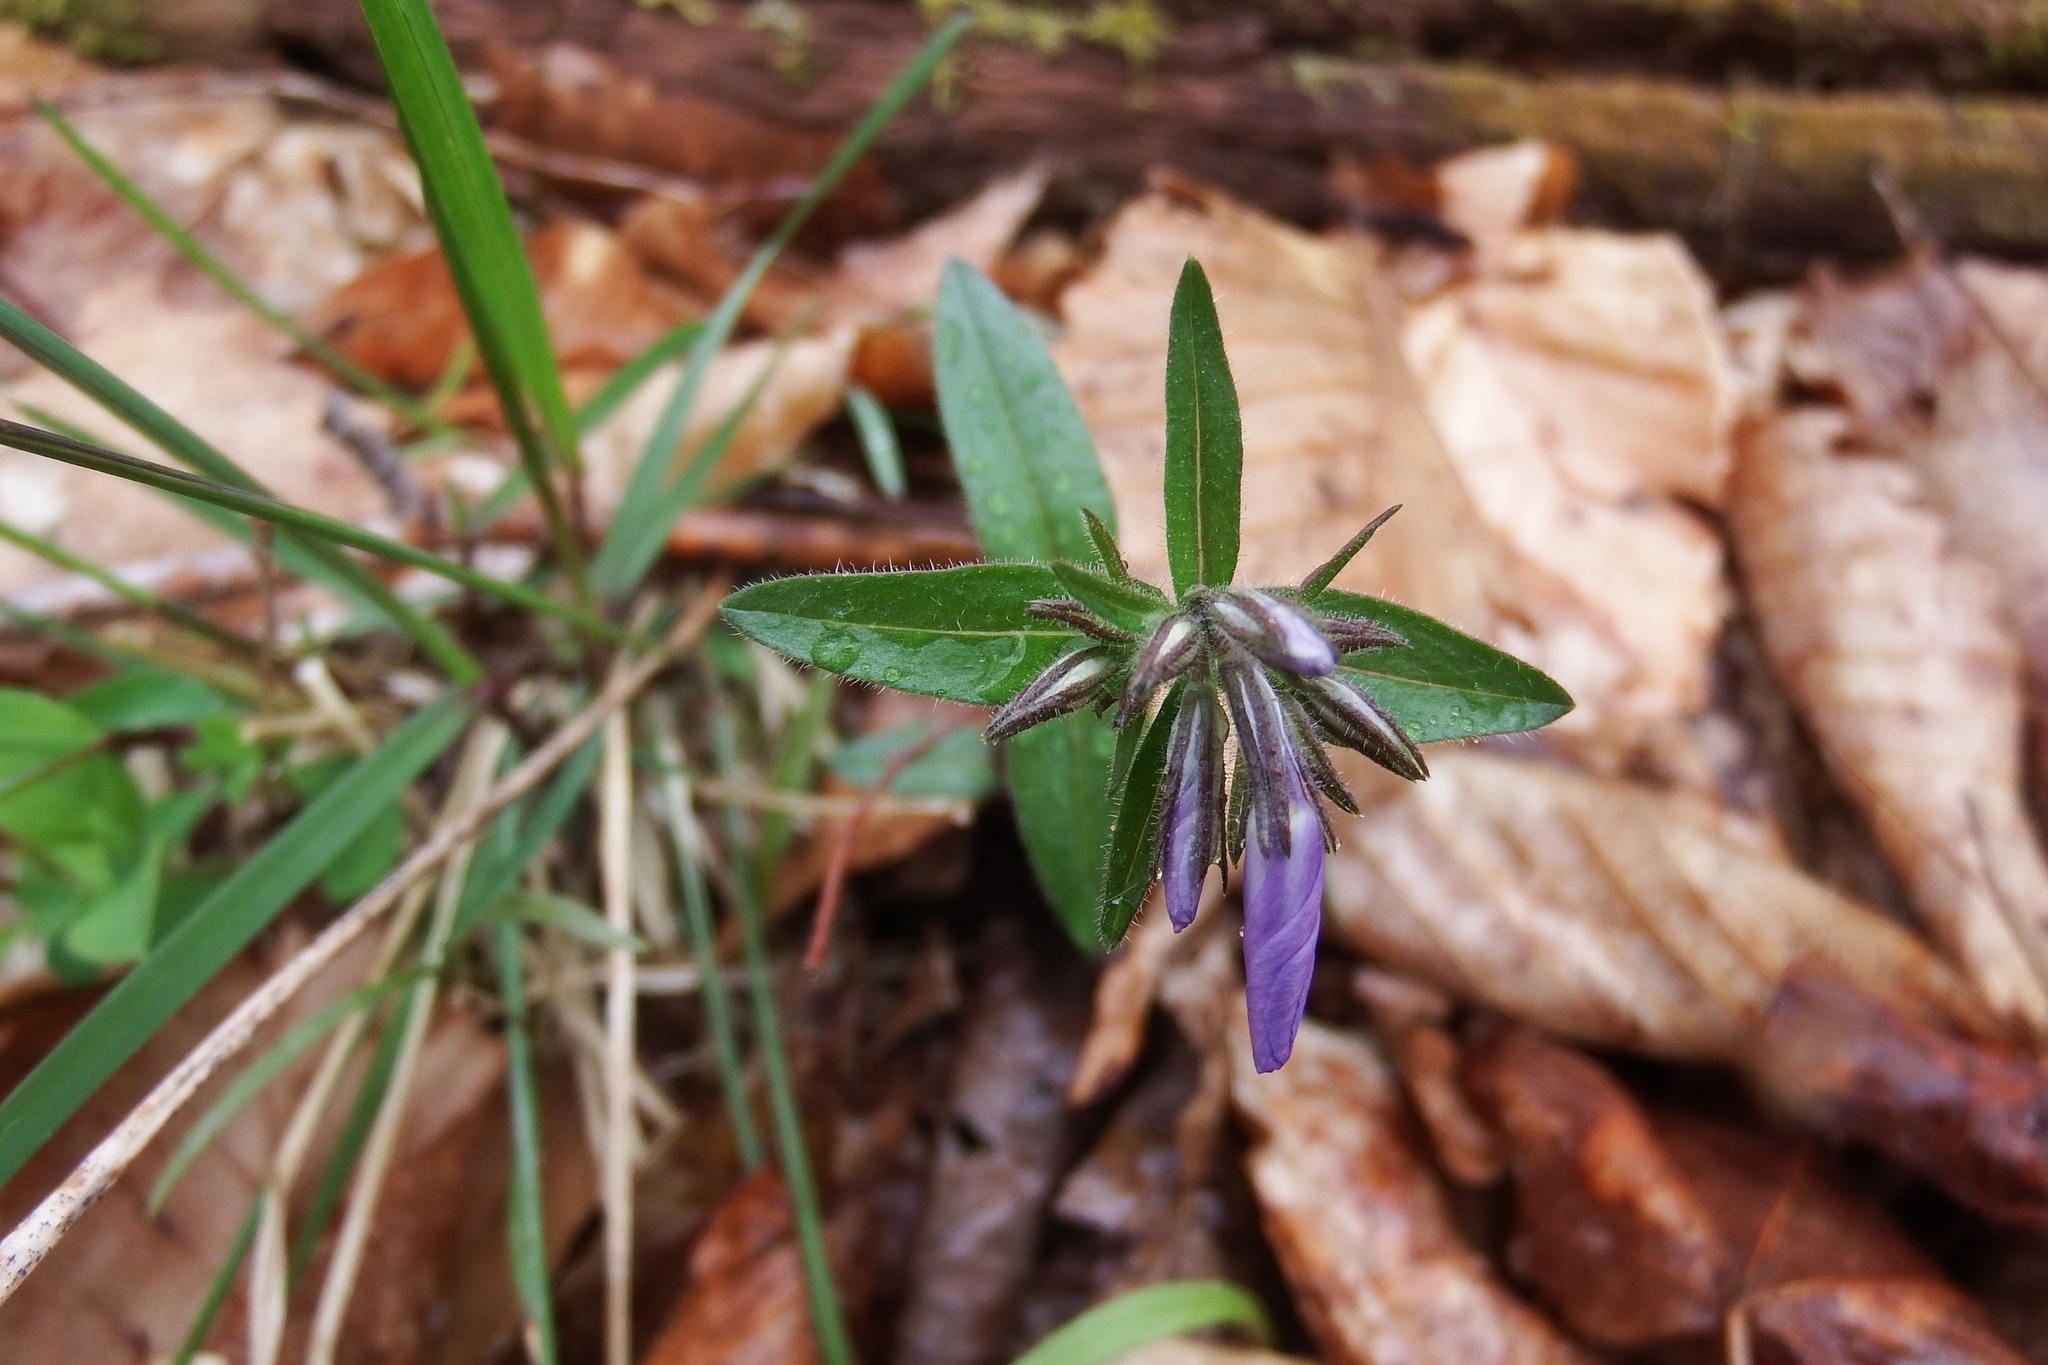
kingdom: Plantae
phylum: Tracheophyta
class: Magnoliopsida
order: Ericales
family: Polemoniaceae
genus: Phlox
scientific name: Phlox divaricata
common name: Blue phlox
